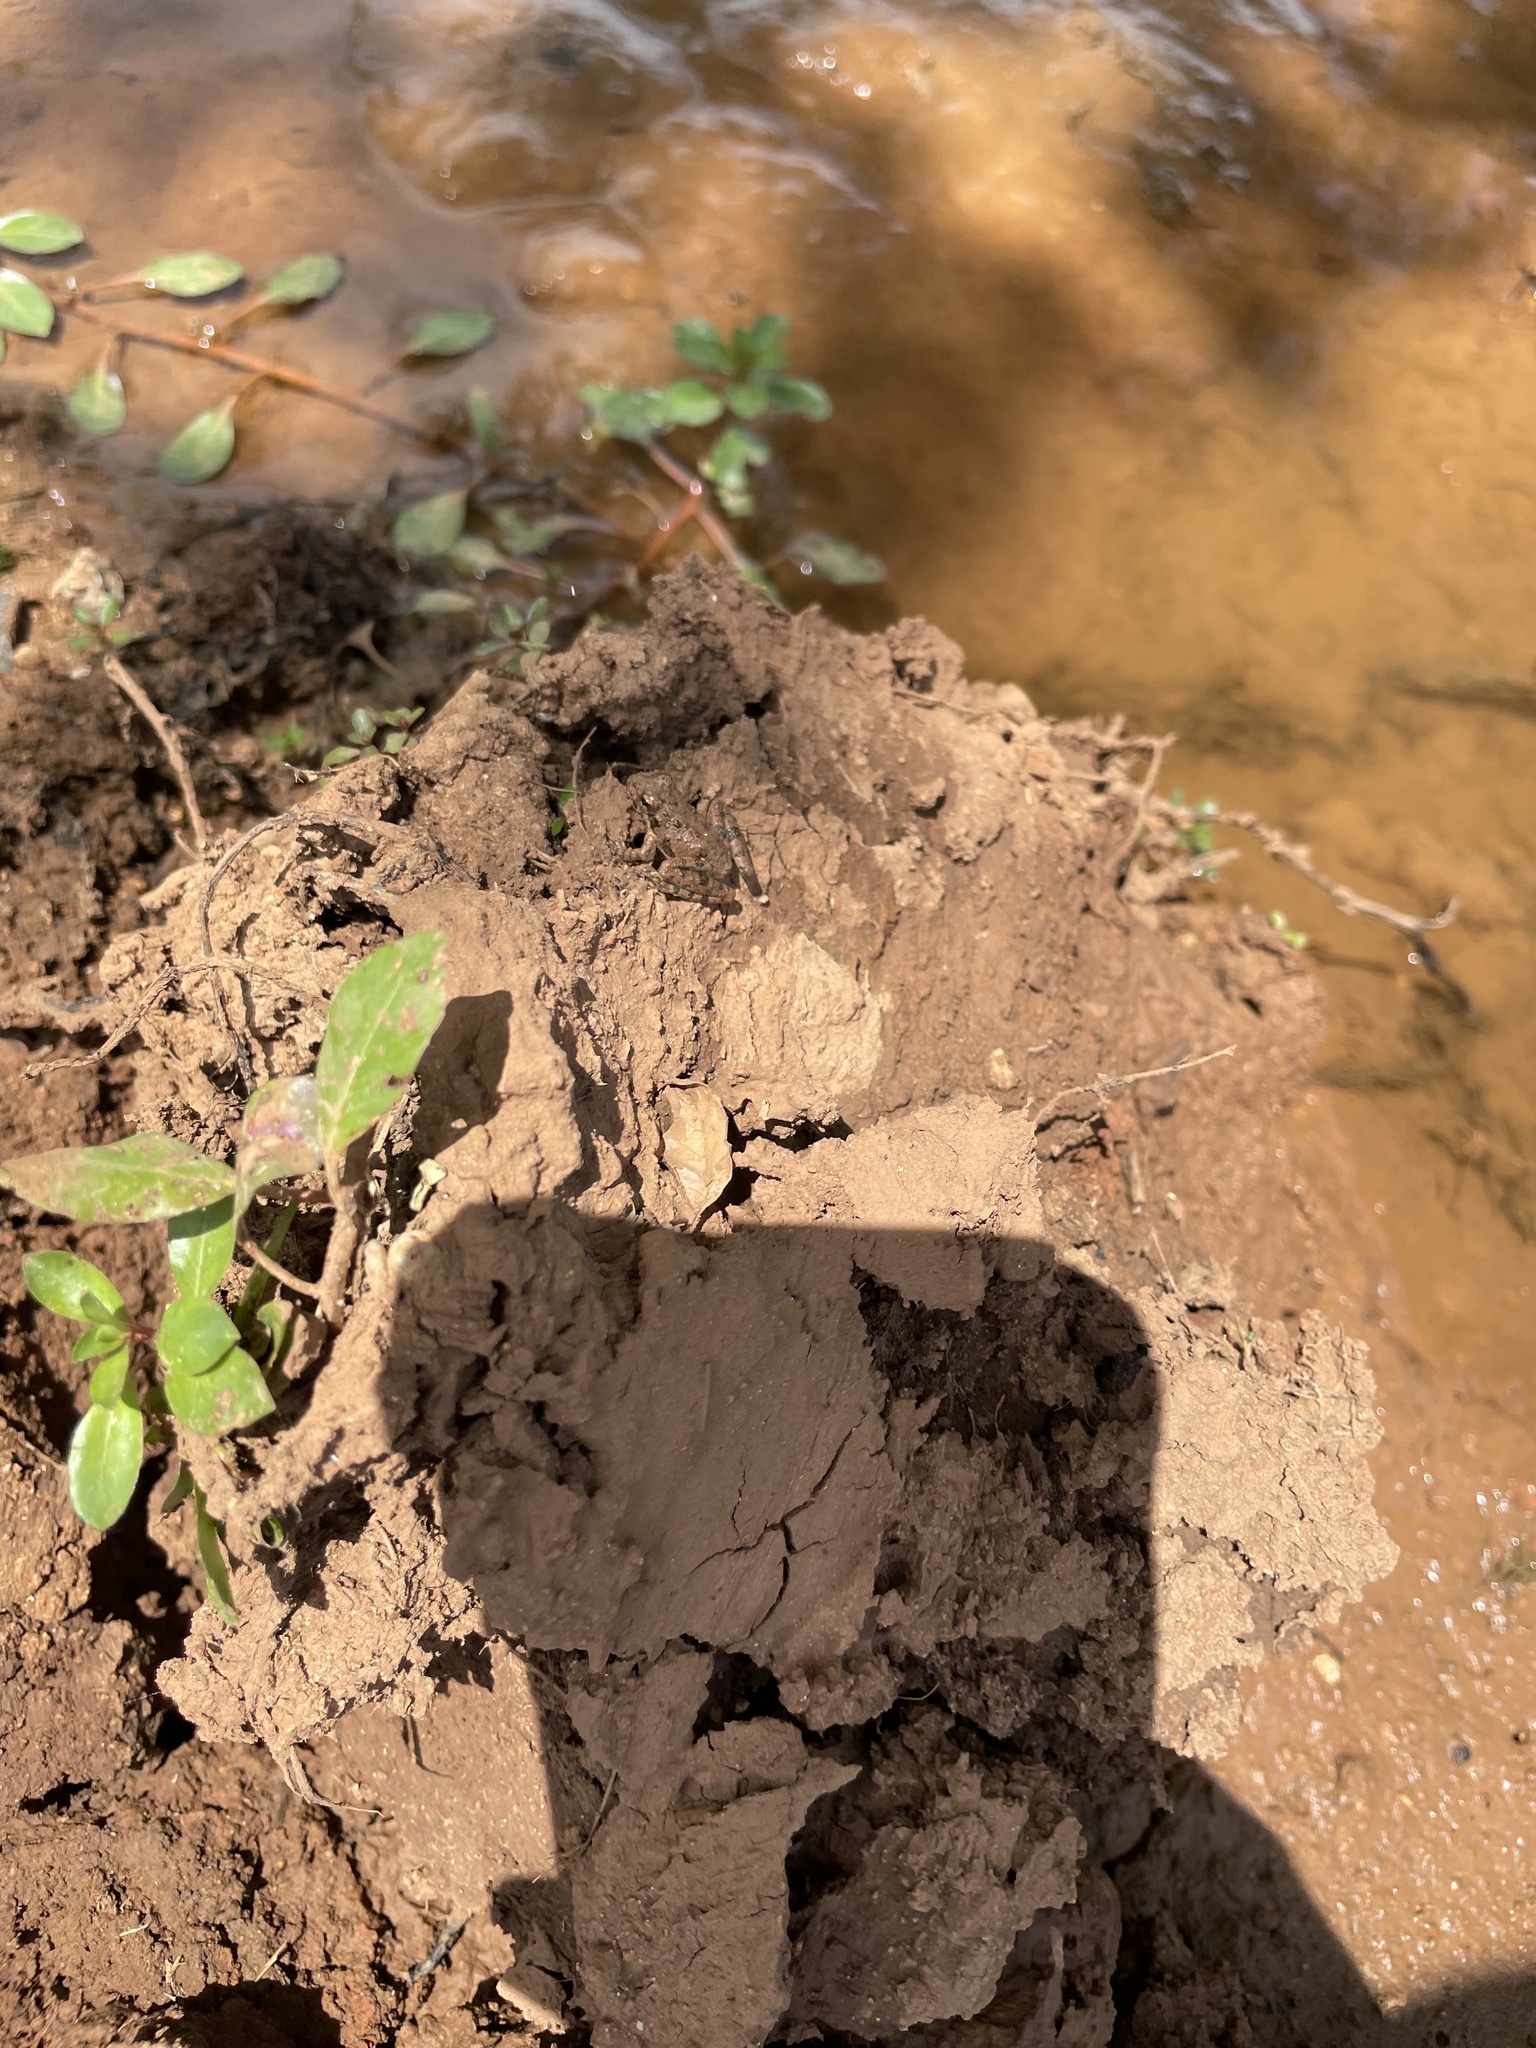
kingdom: Animalia
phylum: Chordata
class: Amphibia
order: Anura
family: Hylidae
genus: Acris
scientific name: Acris blanchardi
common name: Blanchard's cricket frog
